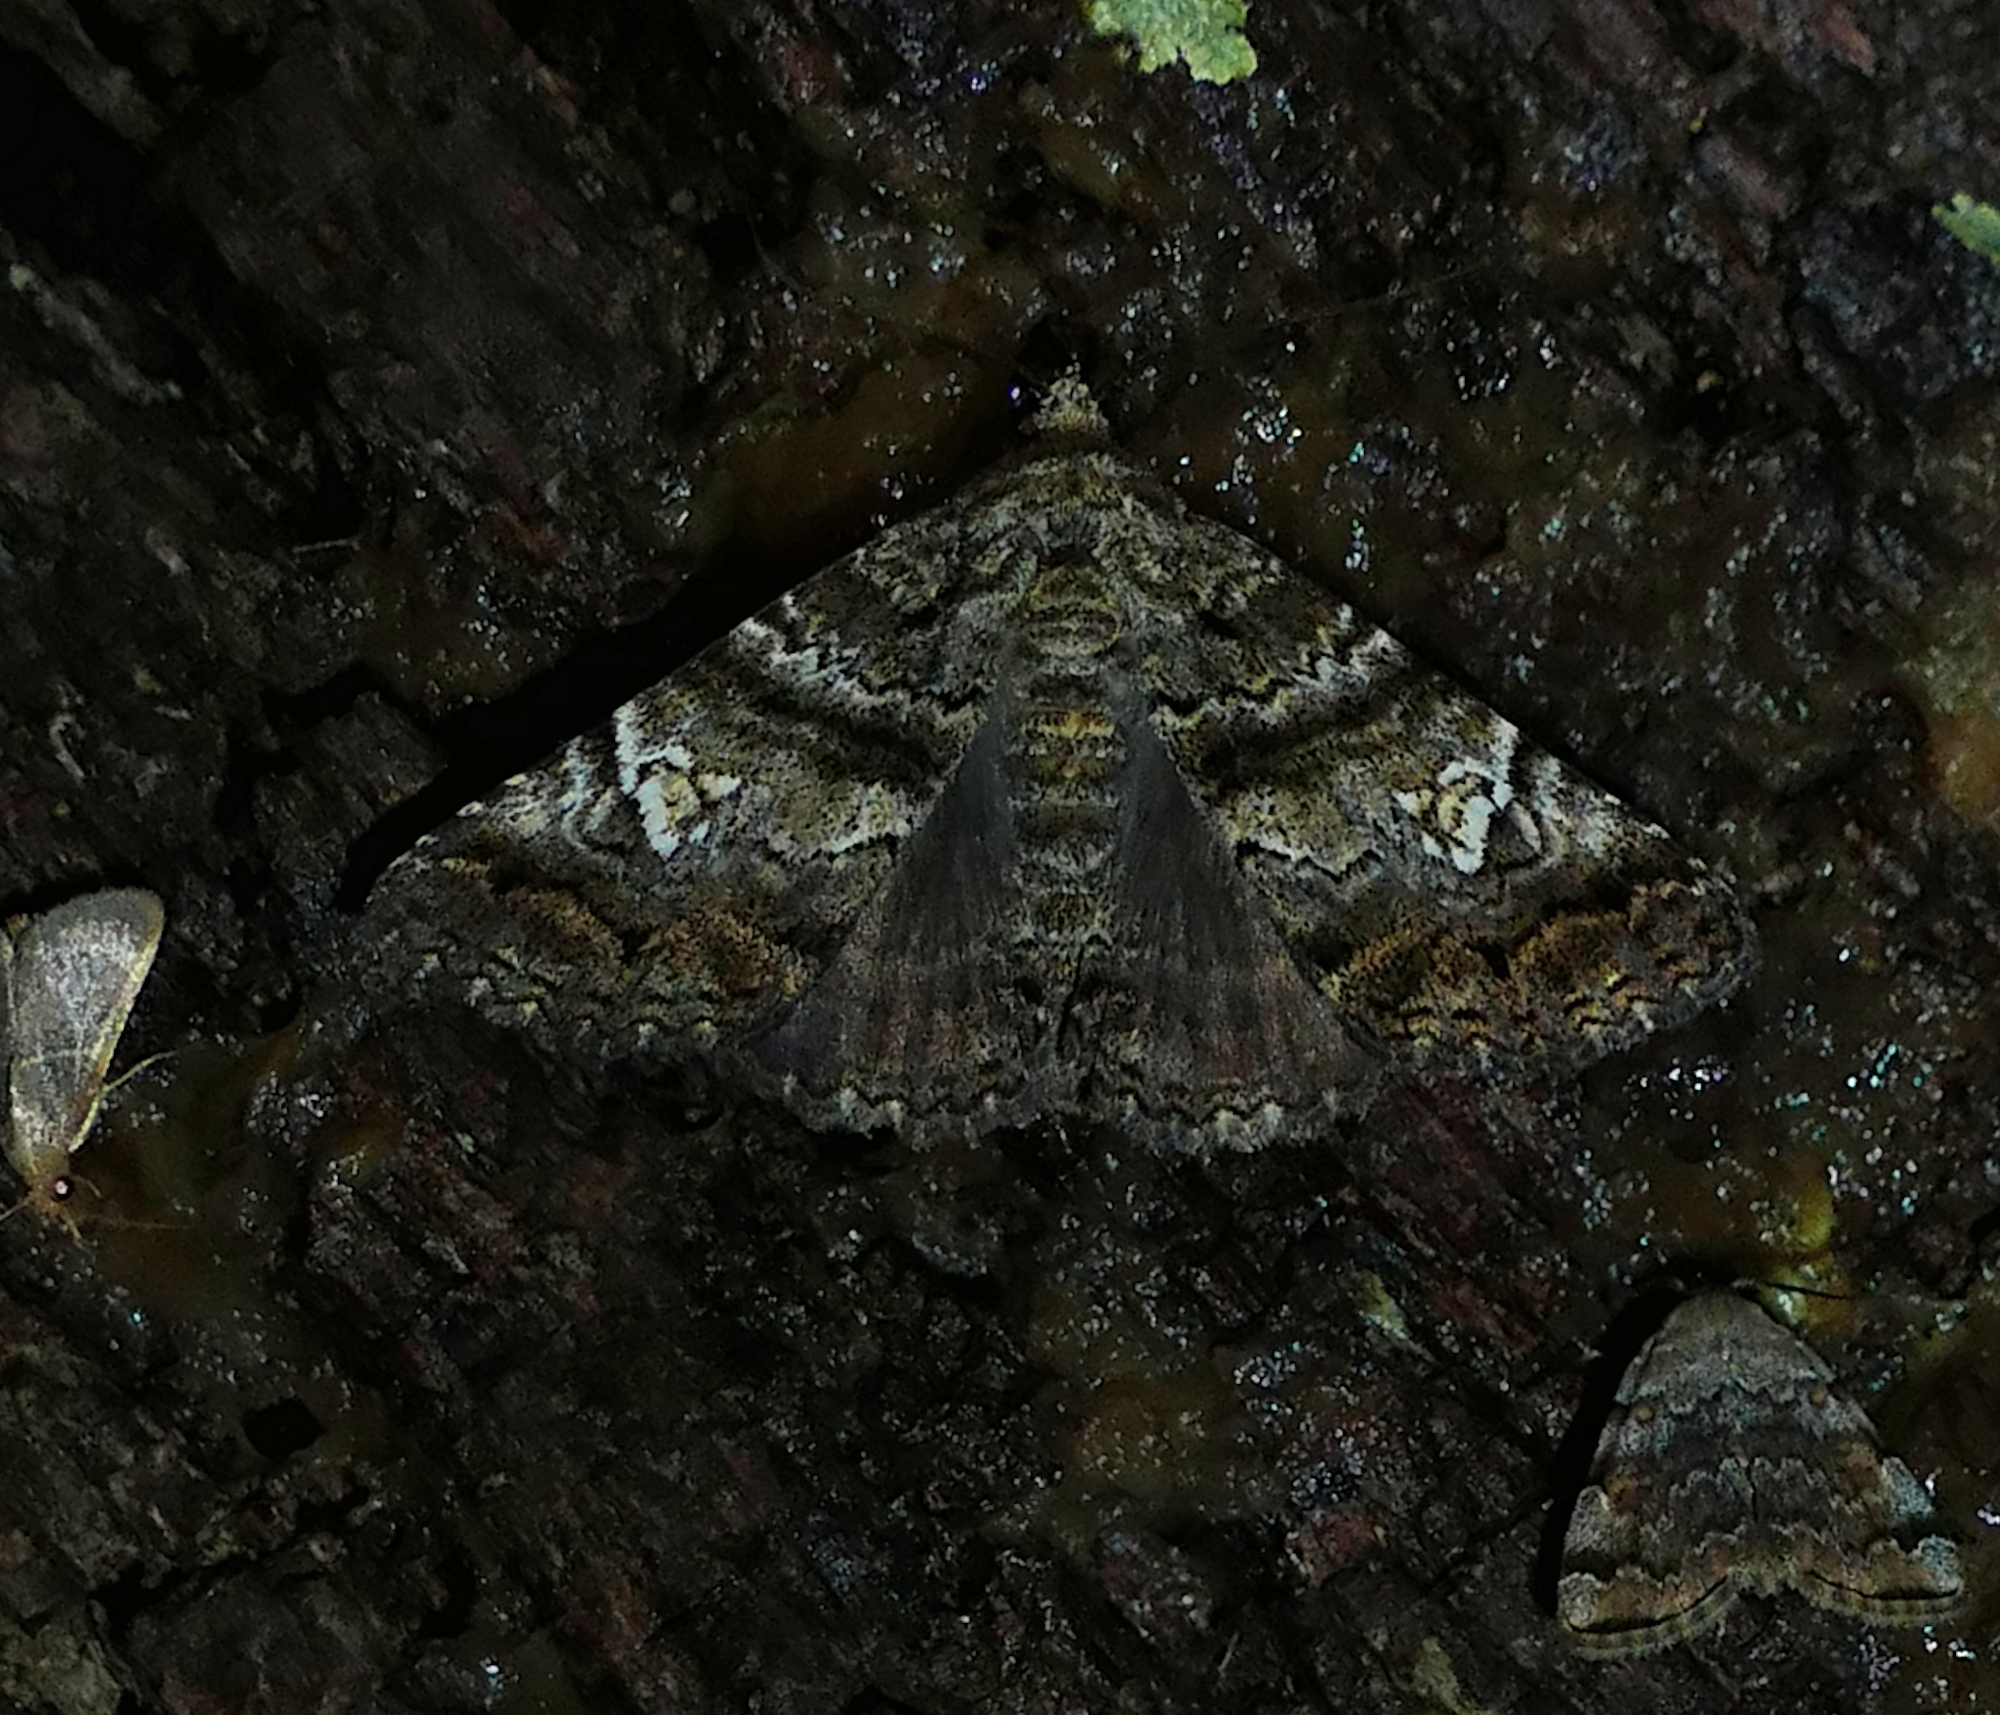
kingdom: Animalia
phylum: Arthropoda
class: Insecta
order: Lepidoptera
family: Erebidae
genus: Metria
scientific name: Metria amella
